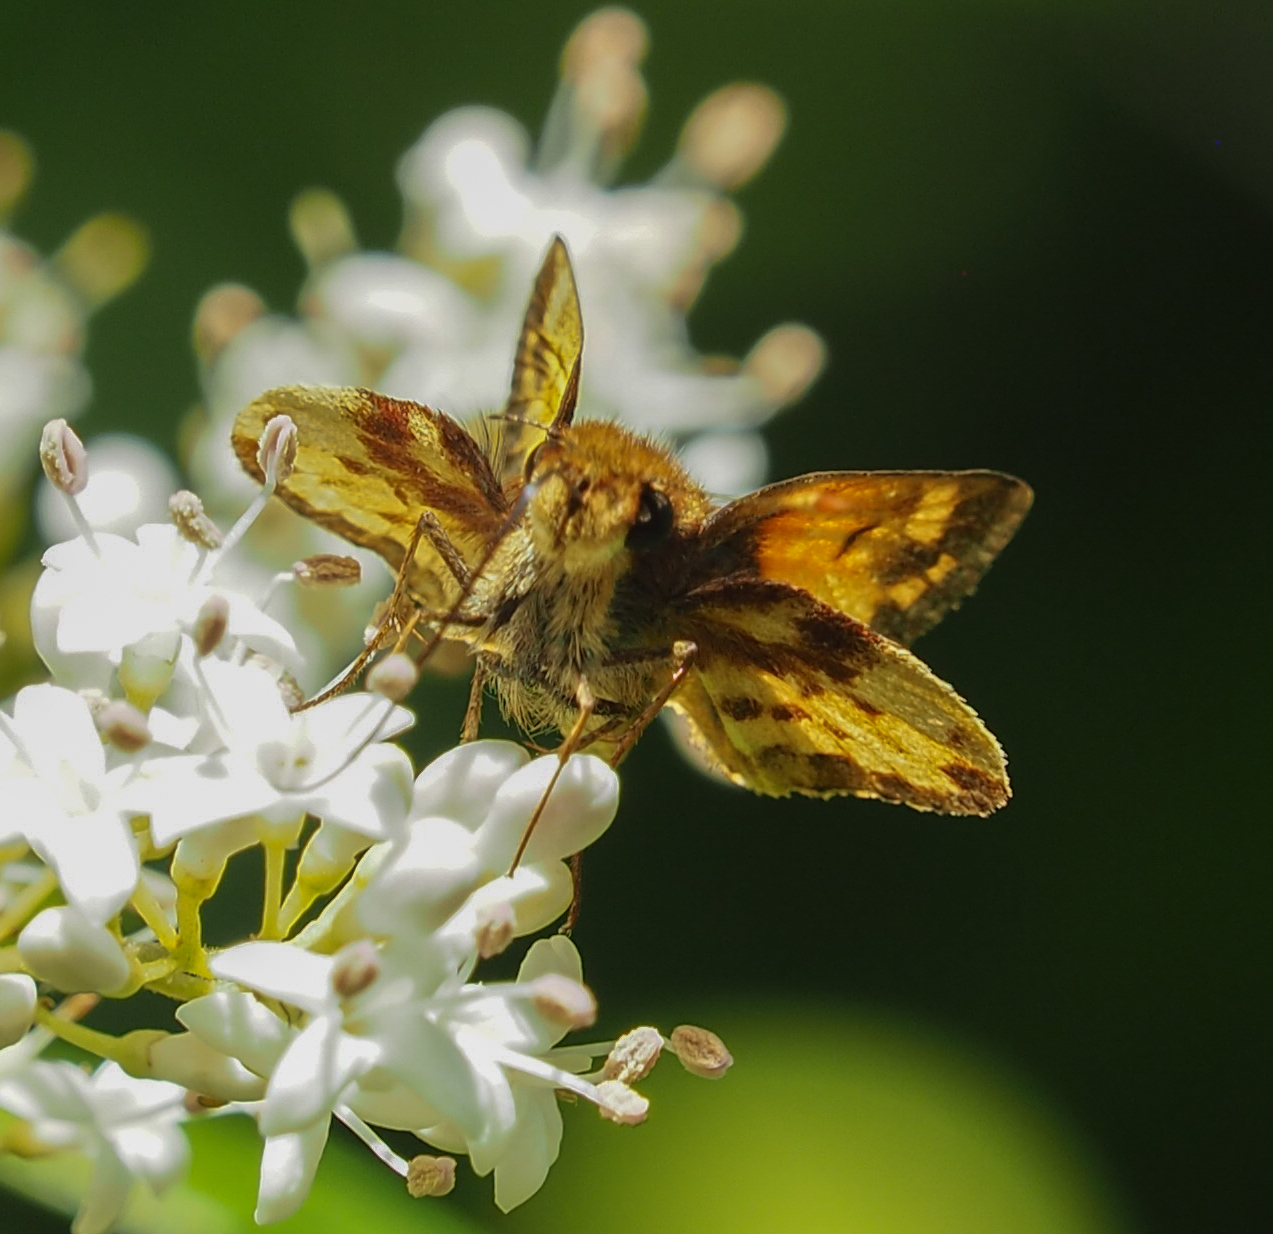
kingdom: Animalia
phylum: Arthropoda
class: Insecta
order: Lepidoptera
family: Hesperiidae
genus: Lon
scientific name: Lon zabulon
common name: Zabulon skipper
